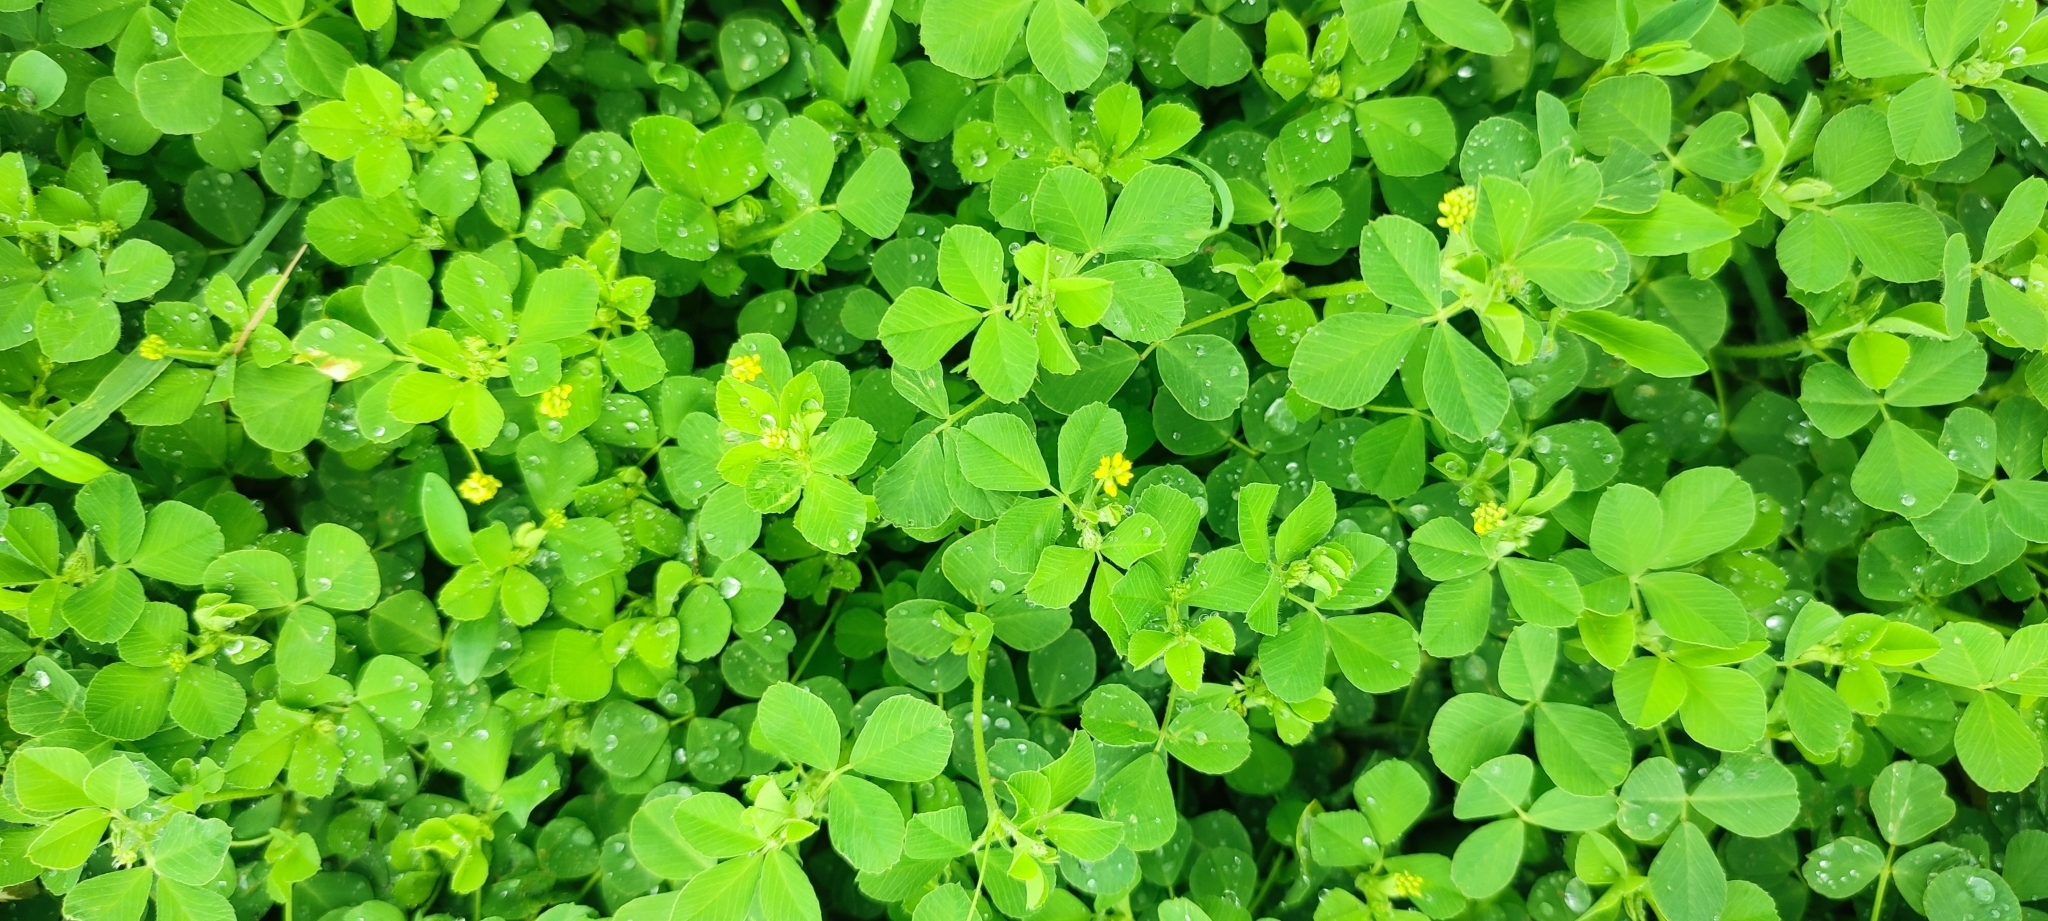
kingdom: Plantae
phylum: Tracheophyta
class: Magnoliopsida
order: Fabales
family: Fabaceae
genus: Medicago
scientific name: Medicago lupulina
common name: Black medick
